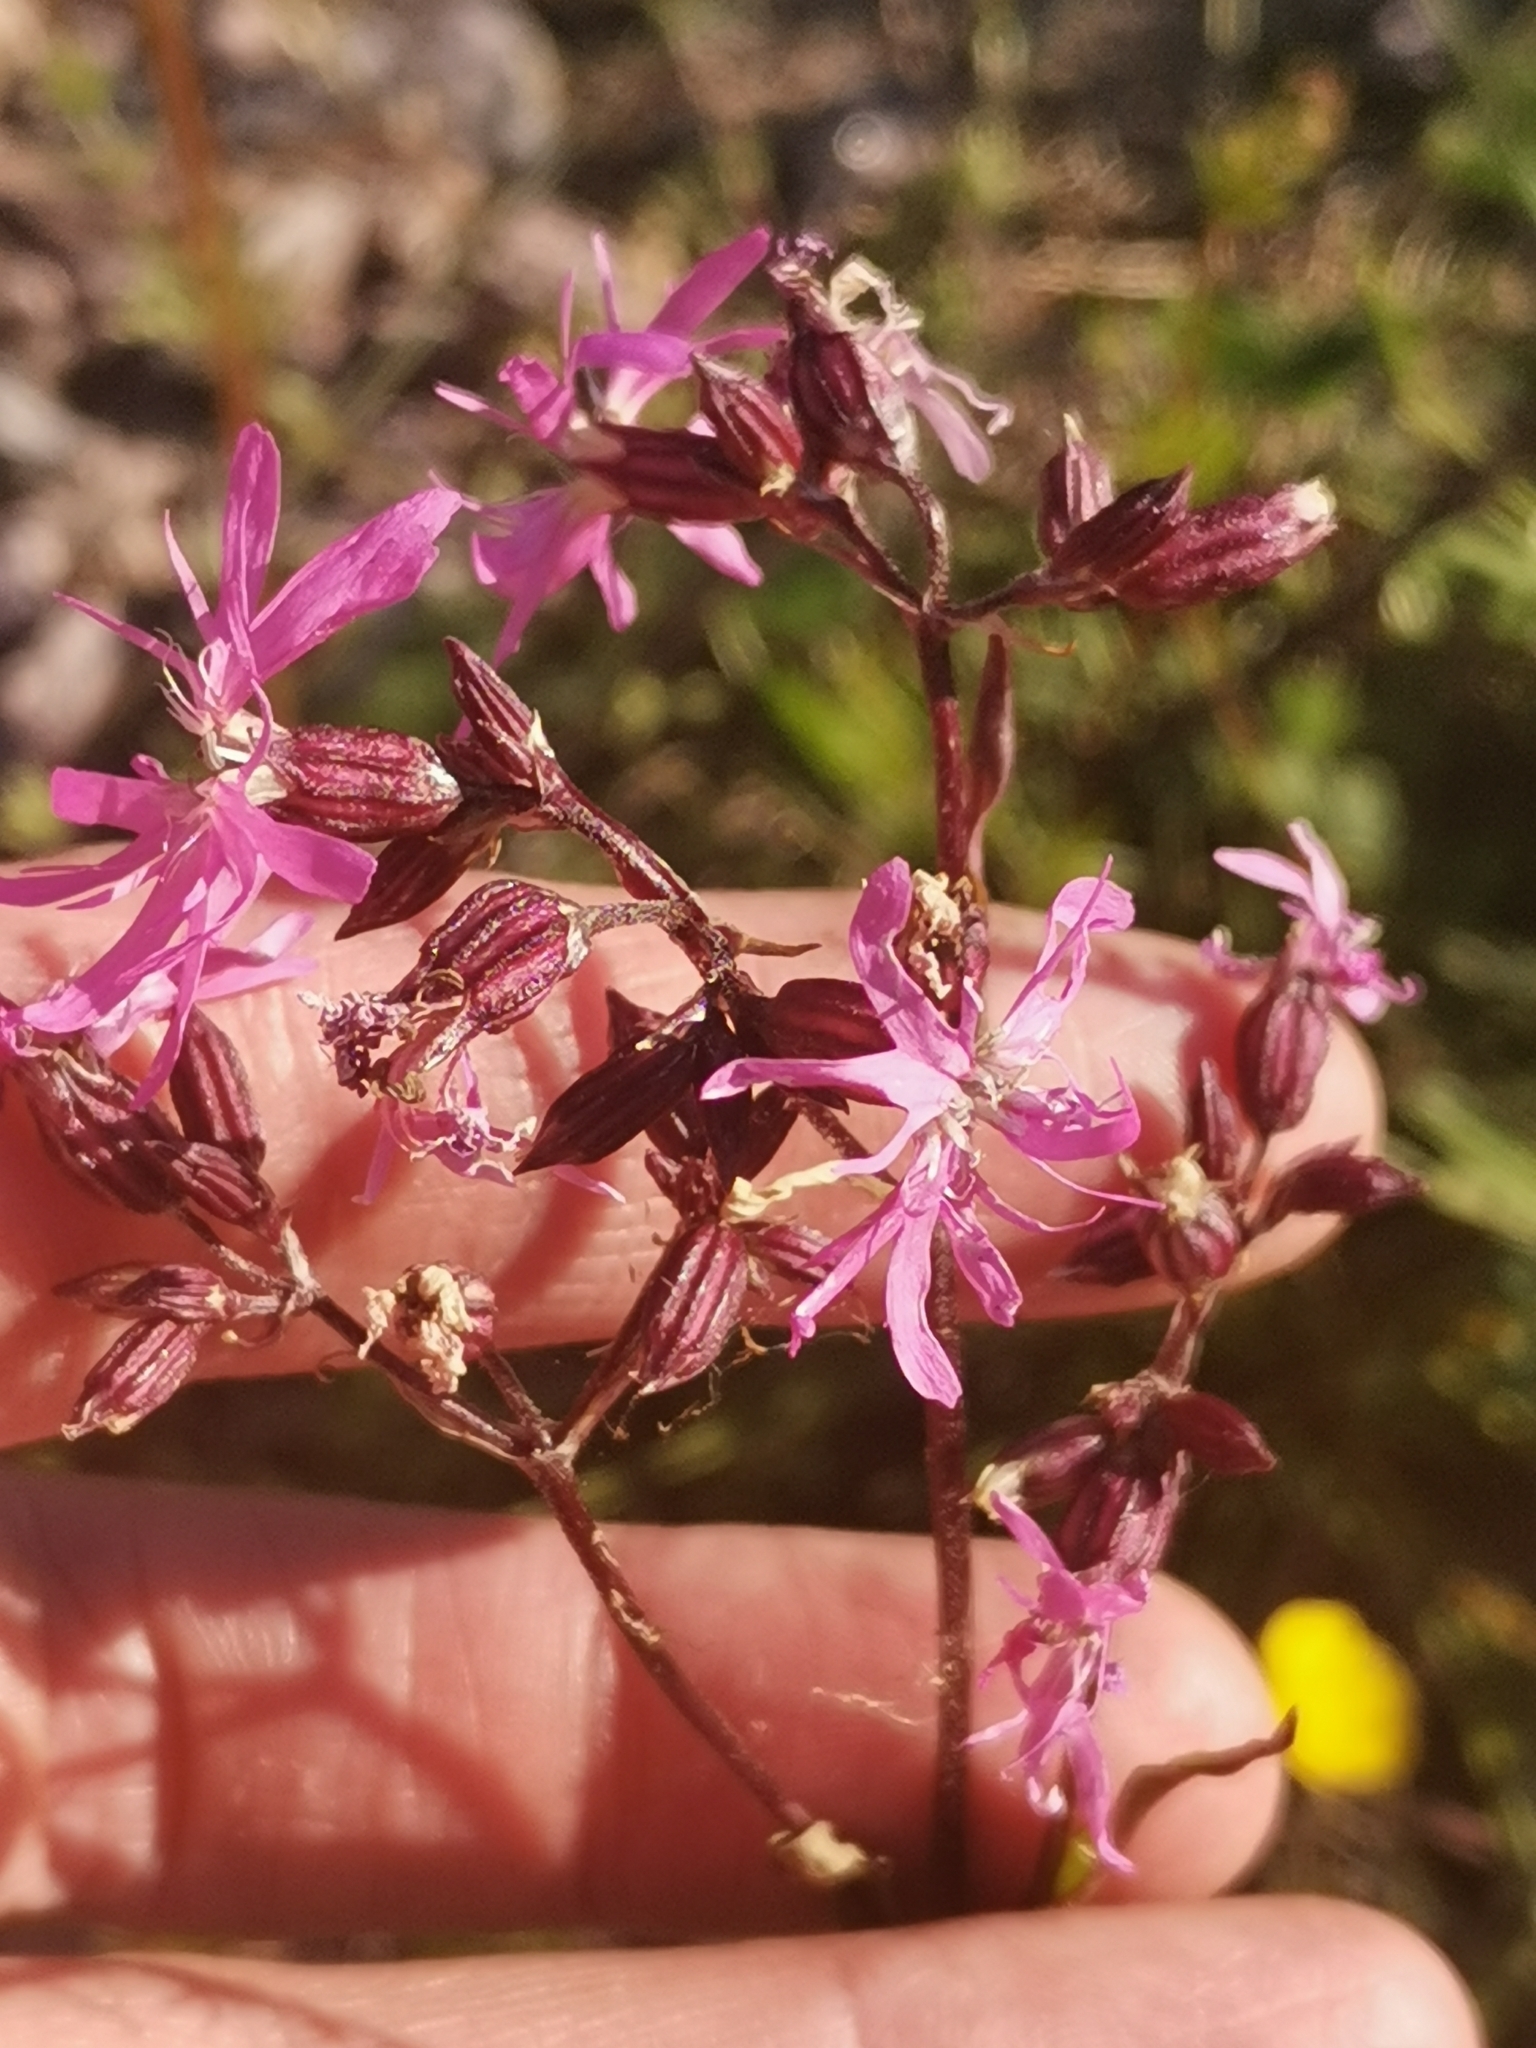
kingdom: Plantae
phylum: Tracheophyta
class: Magnoliopsida
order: Caryophyllales
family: Caryophyllaceae
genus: Silene
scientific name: Silene flos-cuculi
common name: Ragged-robin
